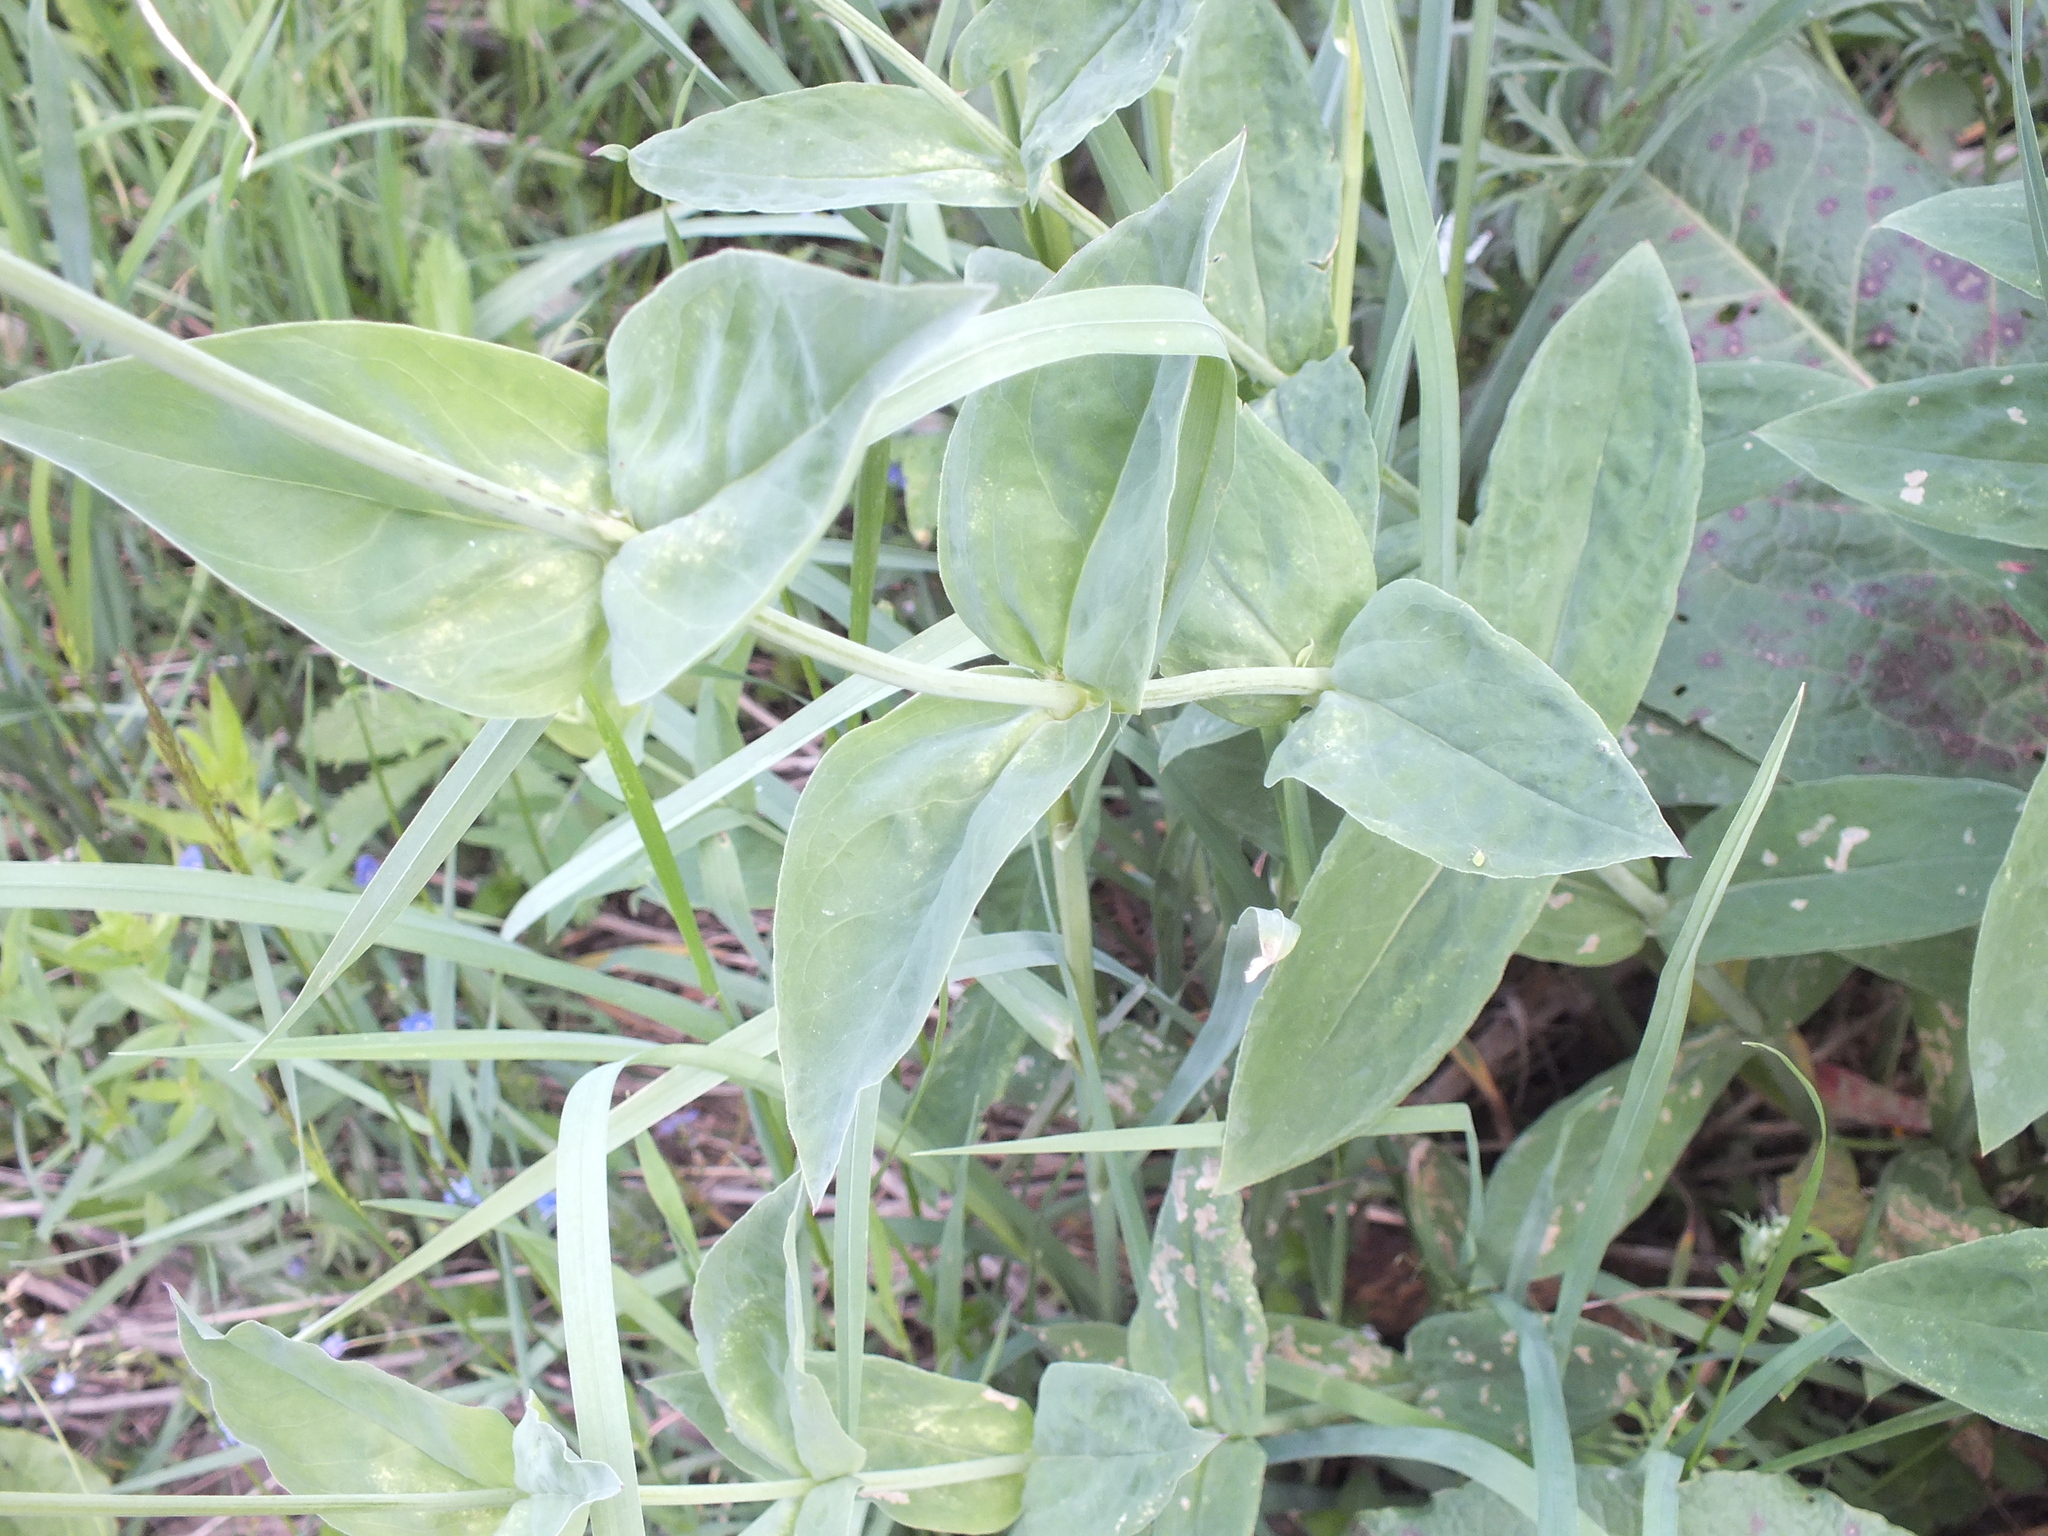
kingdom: Plantae
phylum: Tracheophyta
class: Magnoliopsida
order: Caryophyllales
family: Caryophyllaceae
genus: Silene
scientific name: Silene vulgaris
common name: Bladder campion
